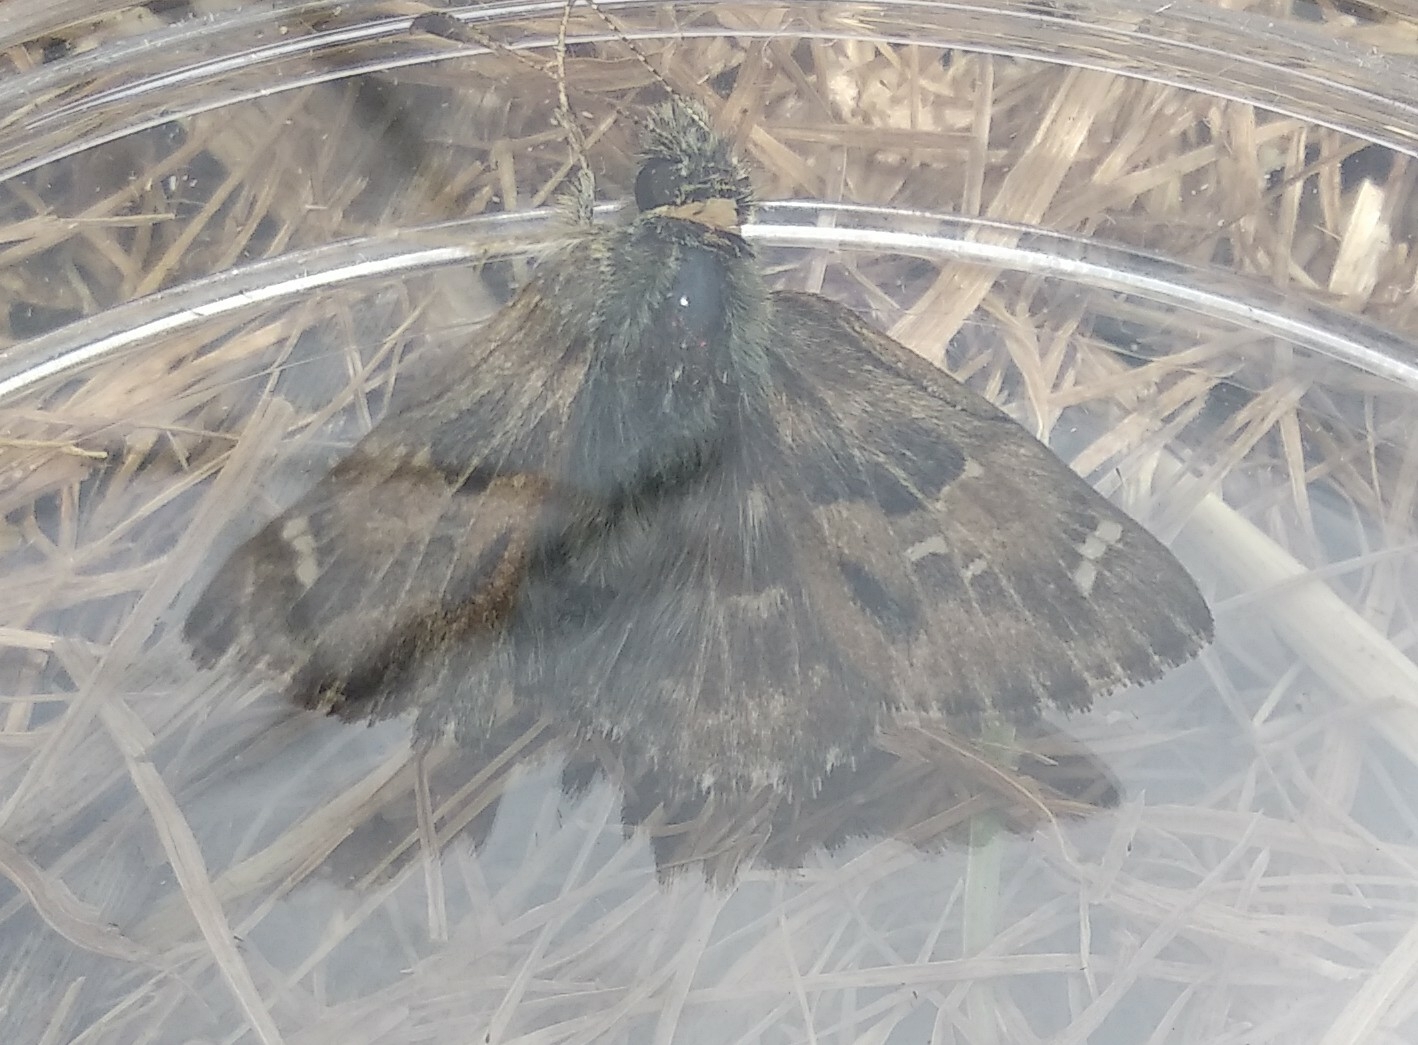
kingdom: Animalia
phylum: Arthropoda
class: Insecta
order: Lepidoptera
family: Hesperiidae
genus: Carcharodus
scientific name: Carcharodus alceae
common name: Mallow skipper
